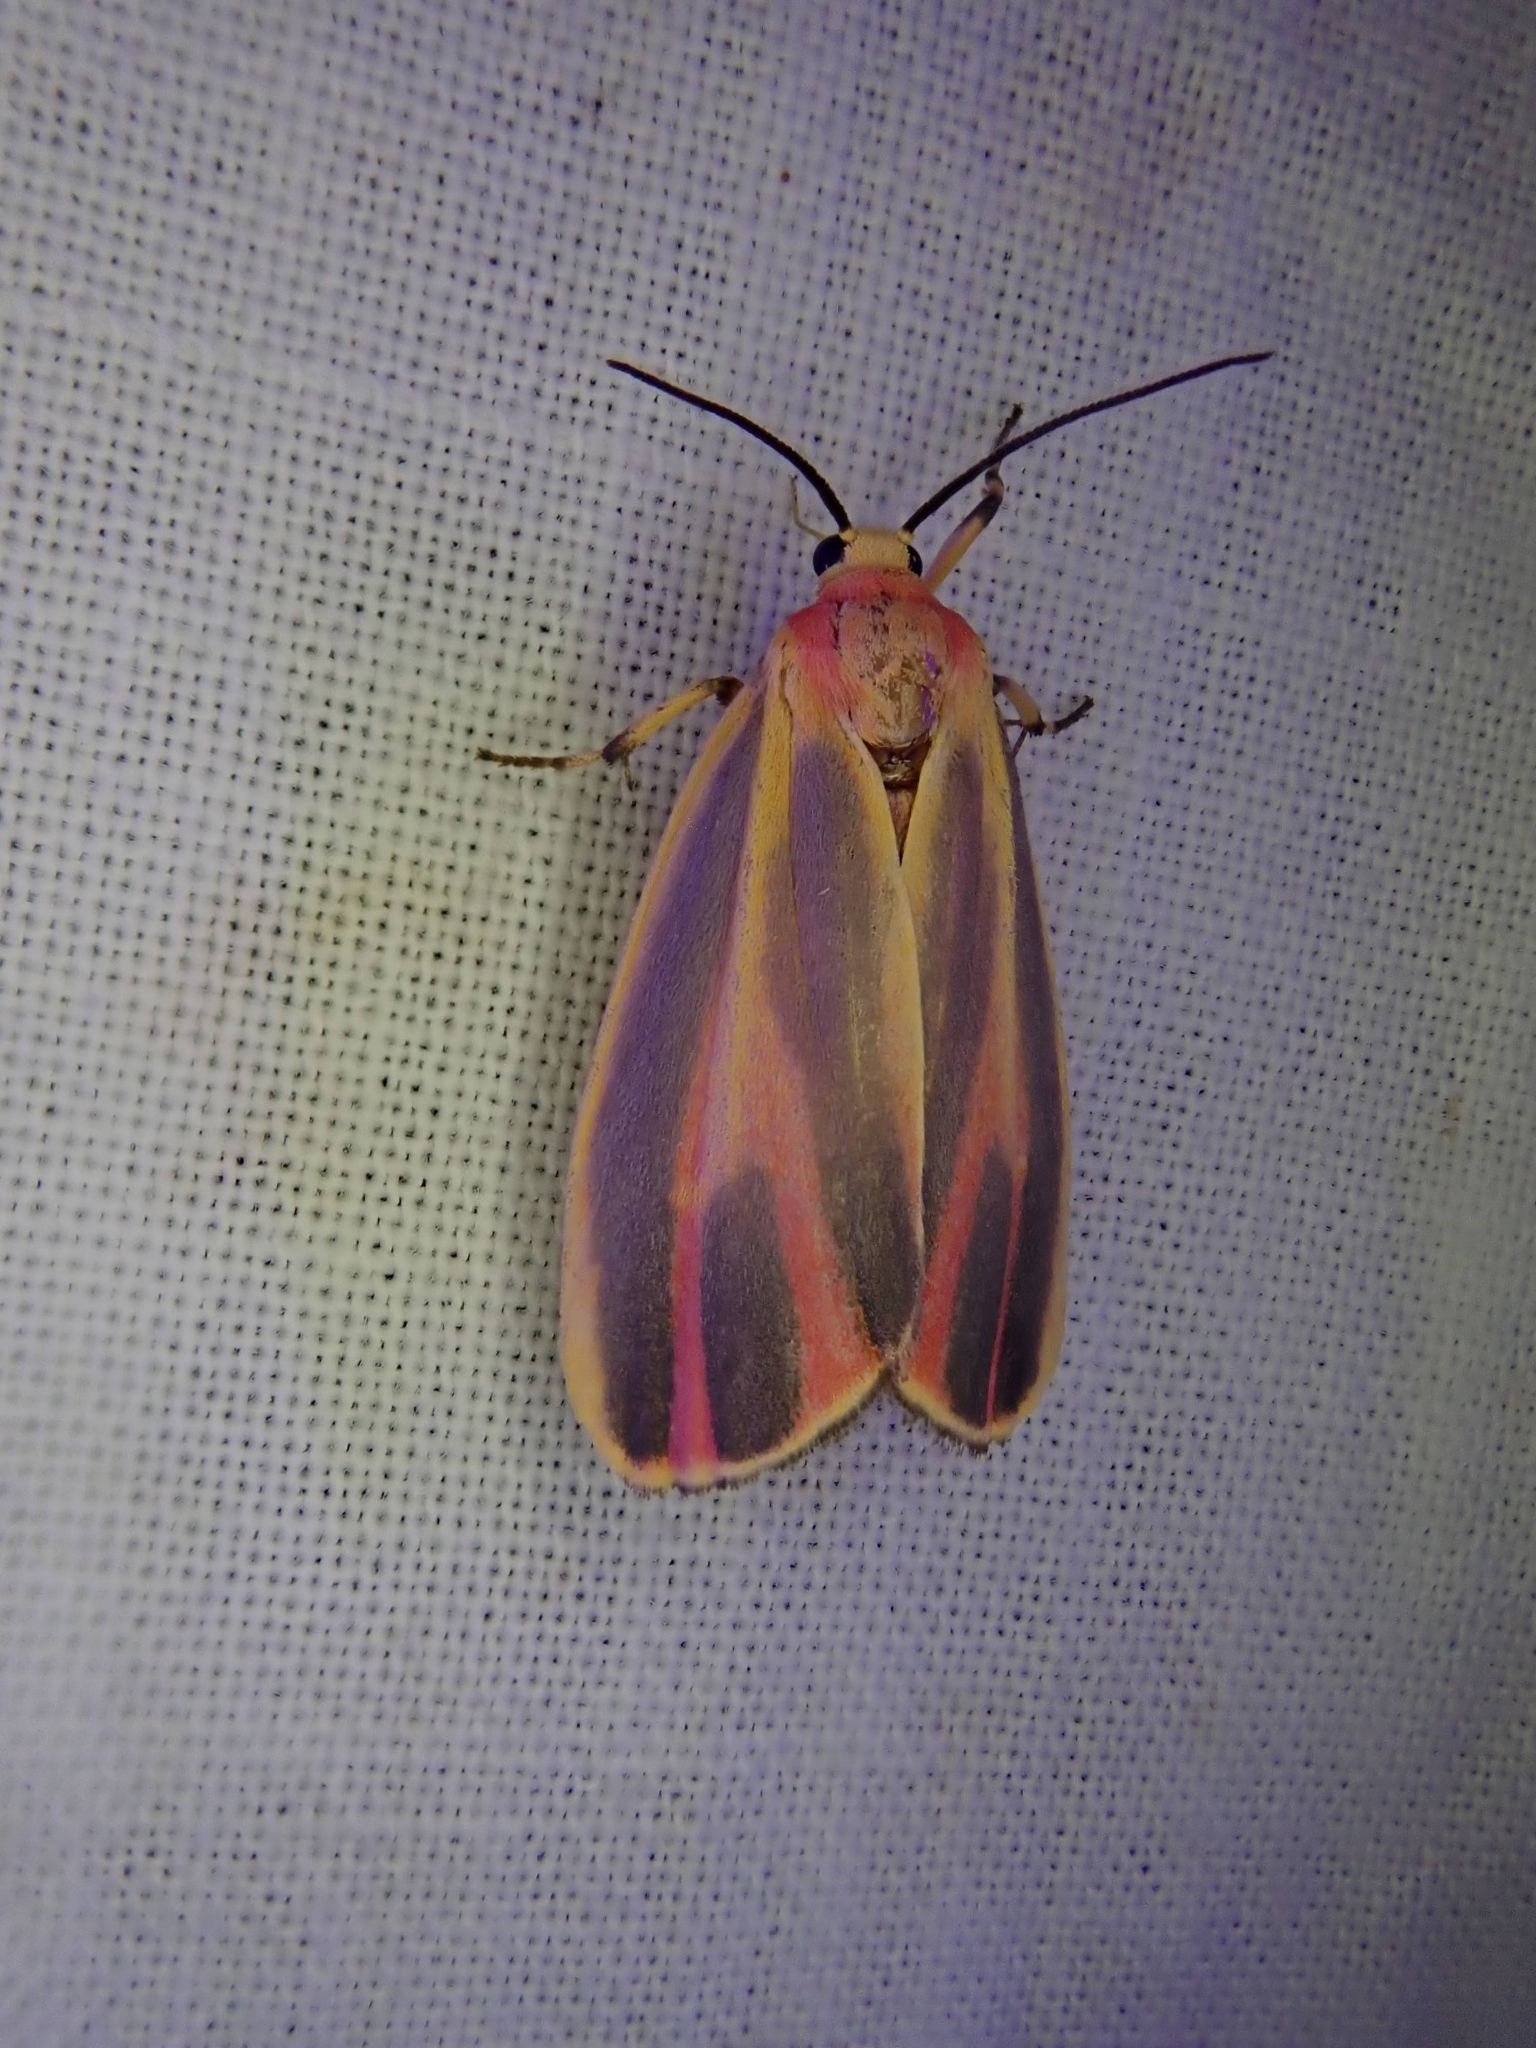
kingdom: Animalia
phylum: Arthropoda
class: Insecta
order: Lepidoptera
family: Erebidae
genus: Hypoprepia
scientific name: Hypoprepia fucosa
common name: Painted lichen moth
